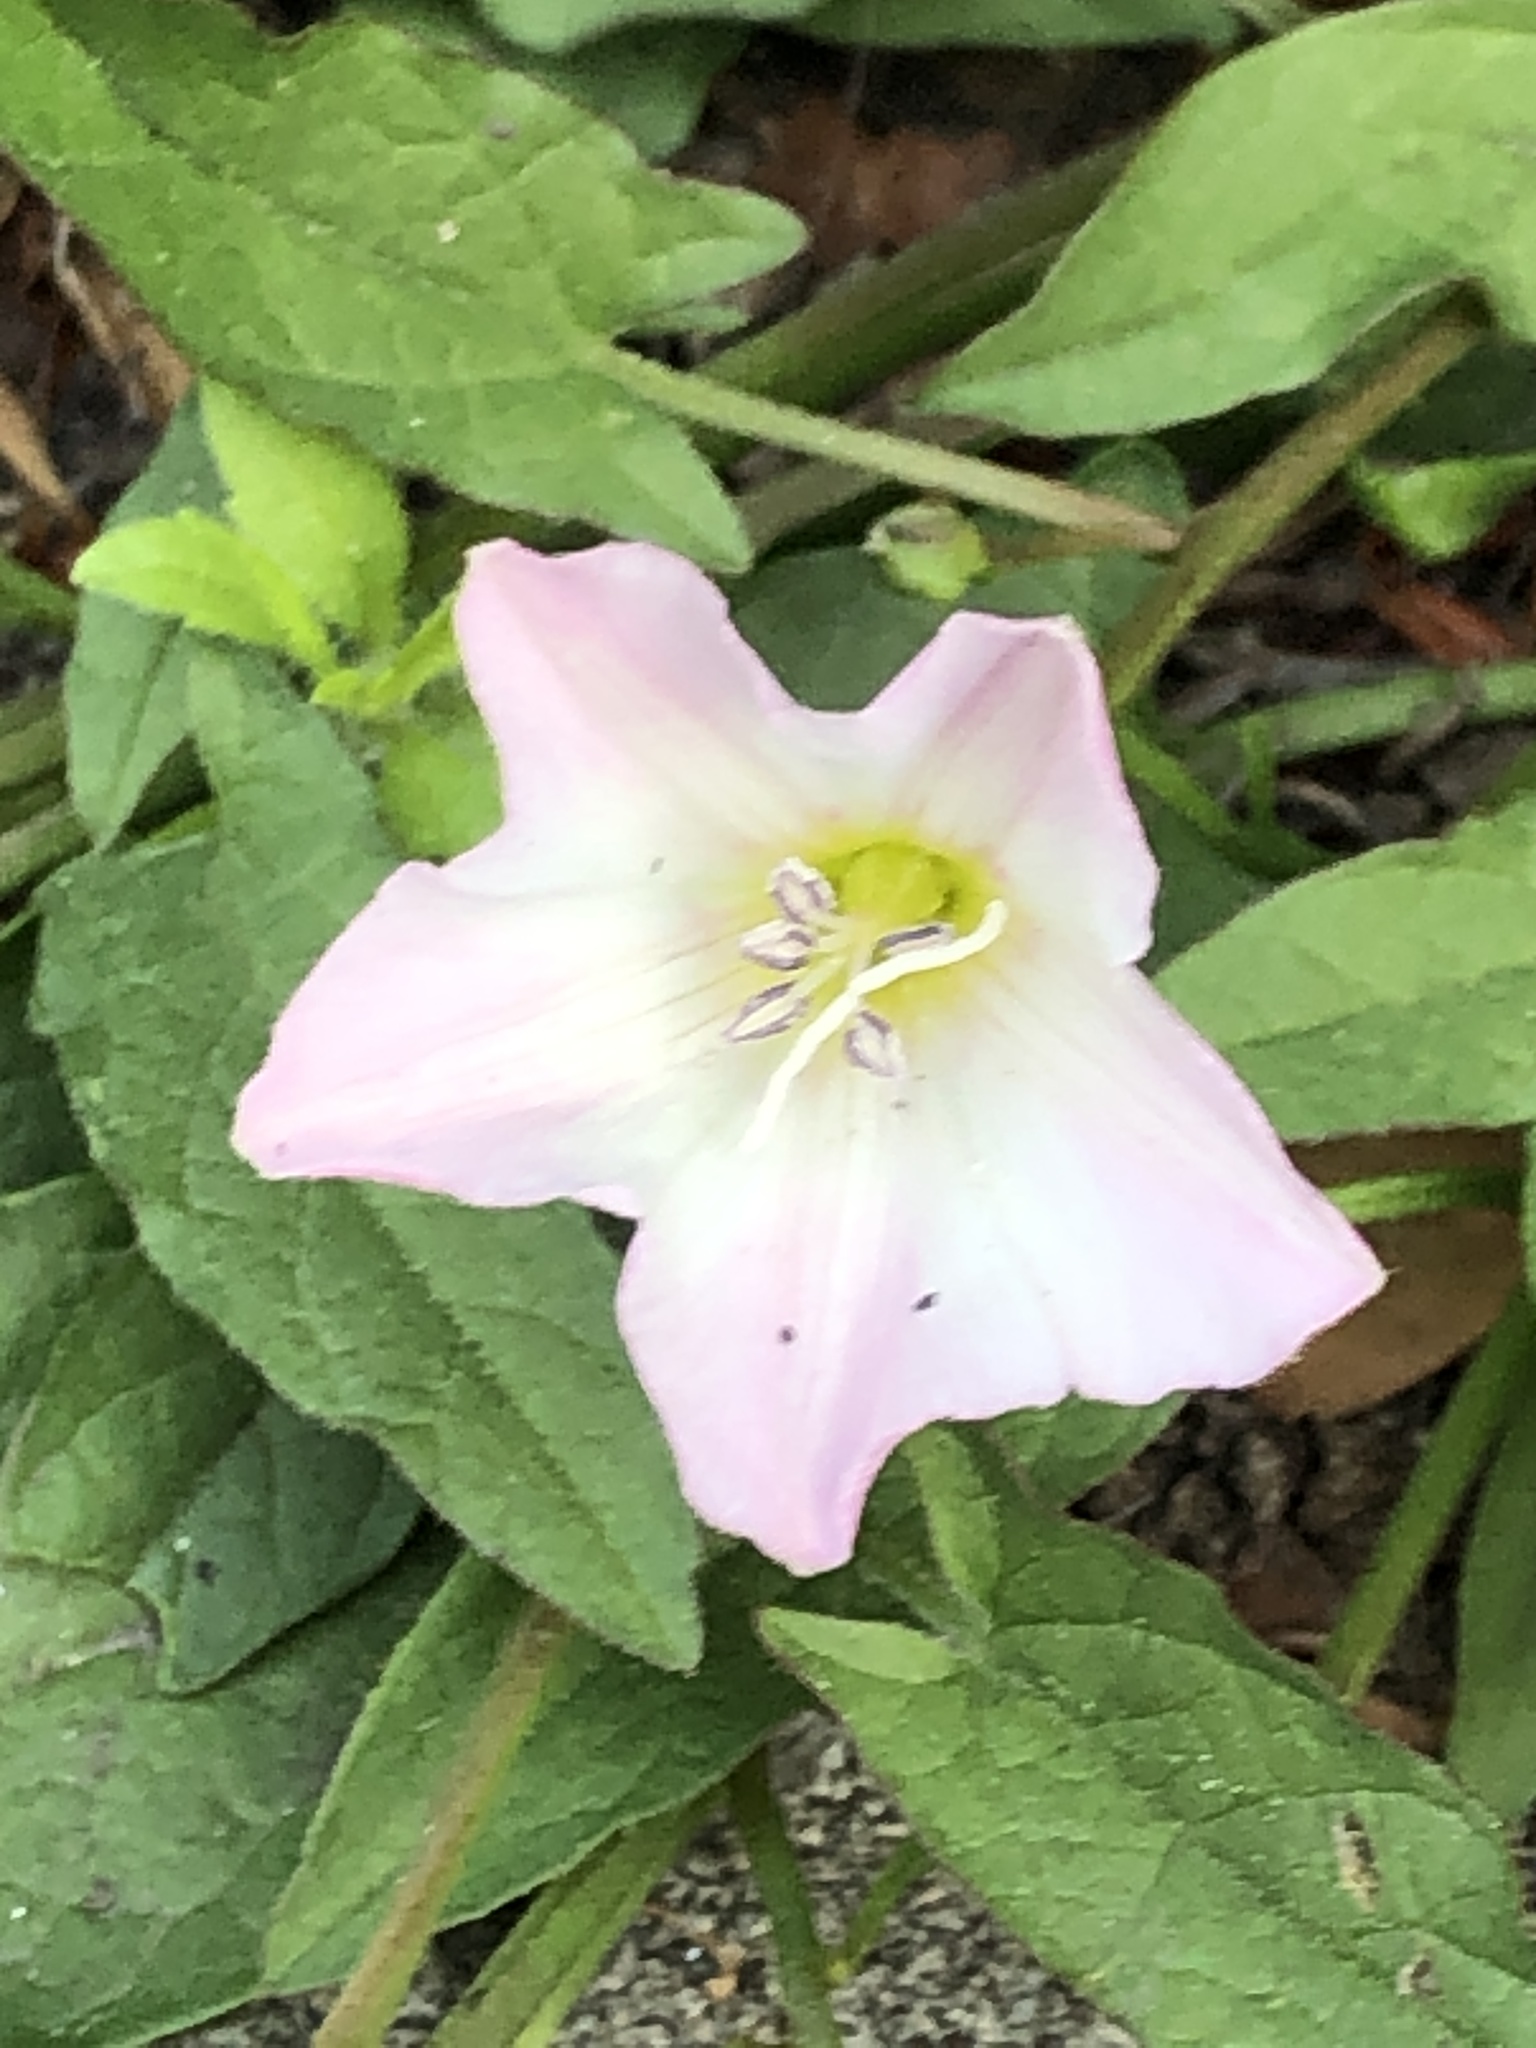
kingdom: Plantae
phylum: Tracheophyta
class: Magnoliopsida
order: Solanales
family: Convolvulaceae
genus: Convolvulus
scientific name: Convolvulus arvensis
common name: Field bindweed
